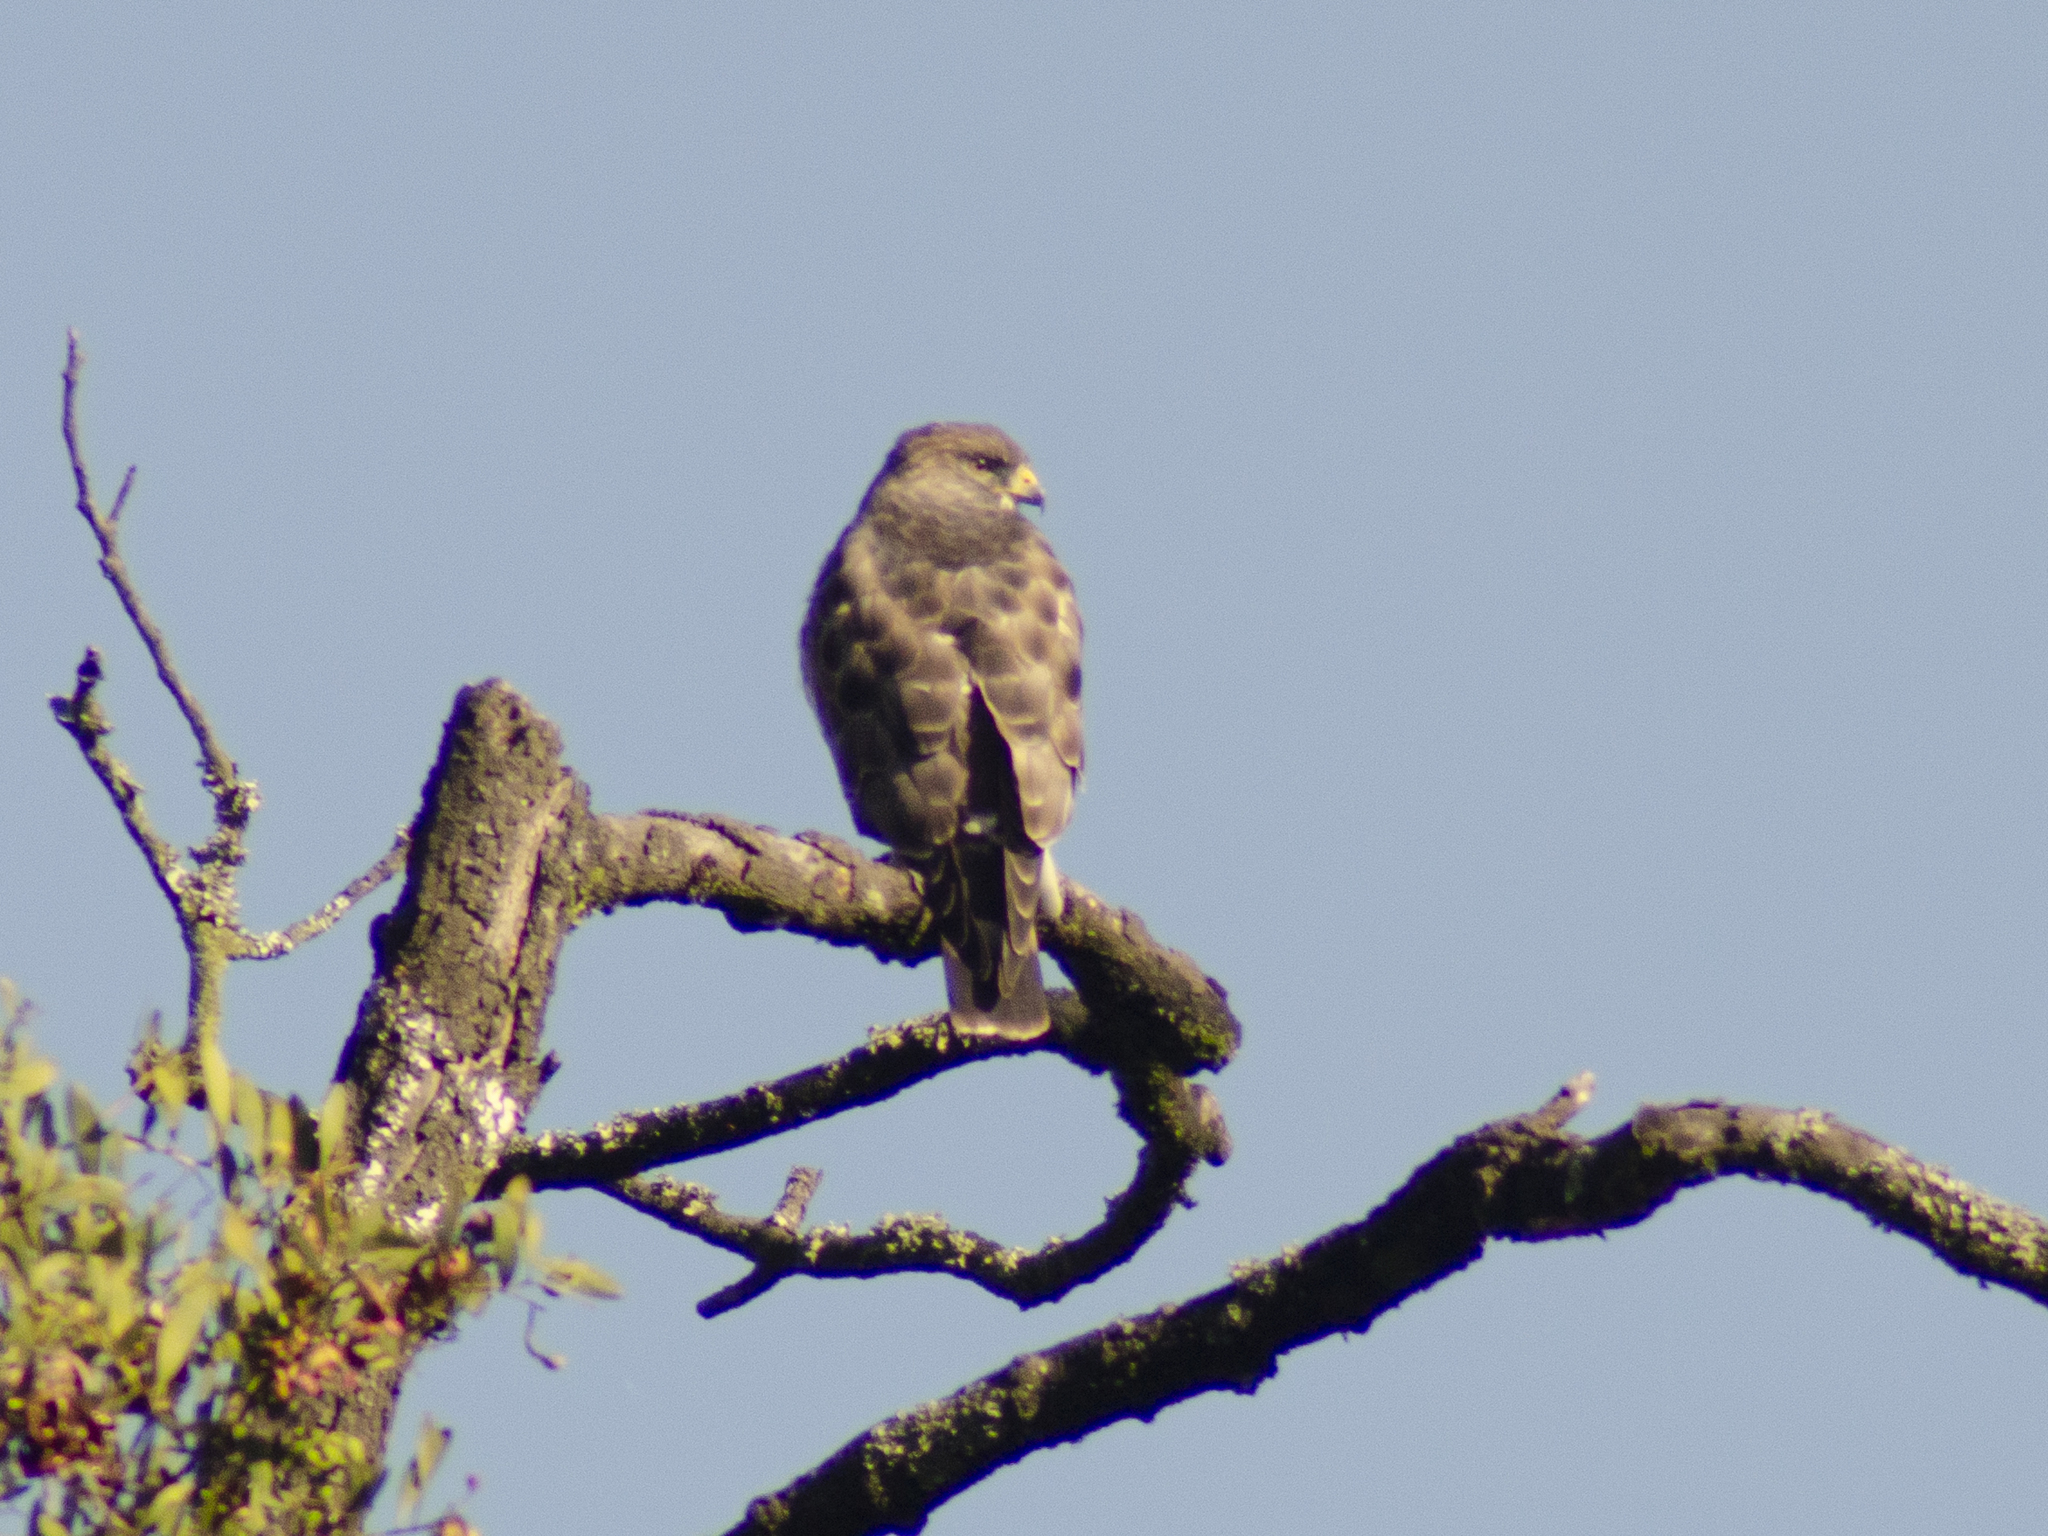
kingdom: Animalia
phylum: Chordata
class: Aves
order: Accipitriformes
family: Accipitridae
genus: Buteo
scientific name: Buteo platypterus
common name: Broad-winged hawk
